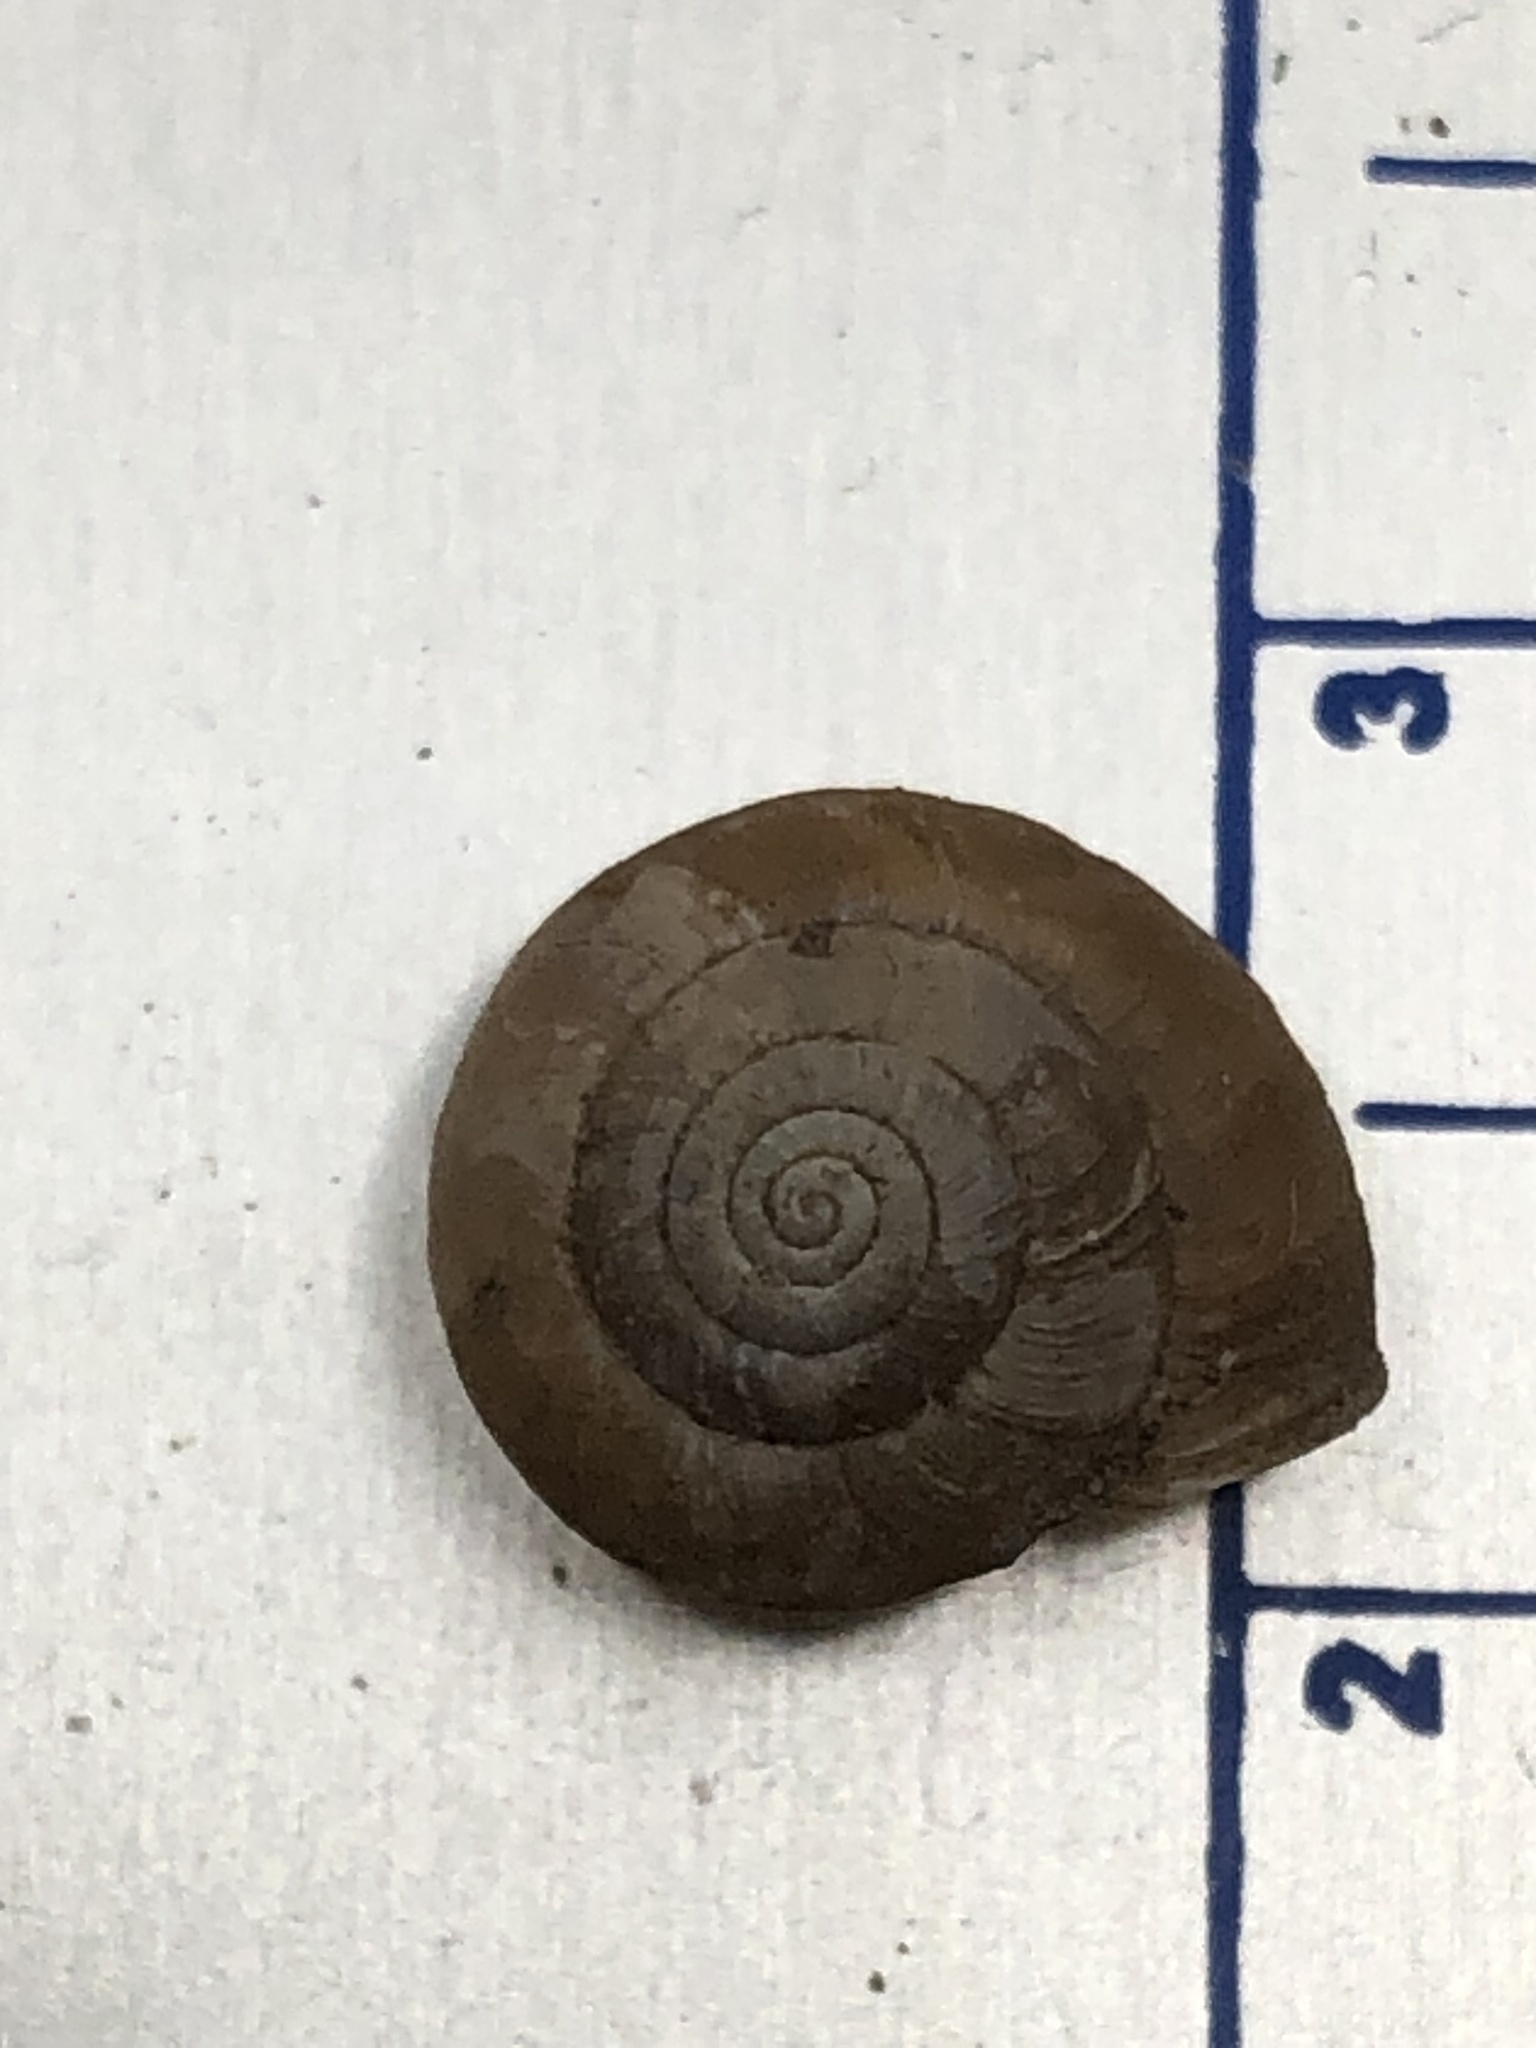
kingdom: Animalia
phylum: Mollusca
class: Gastropoda
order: Stylommatophora
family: Hygromiidae
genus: Trochulus
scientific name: Trochulus hispidus
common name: Hairy snail
